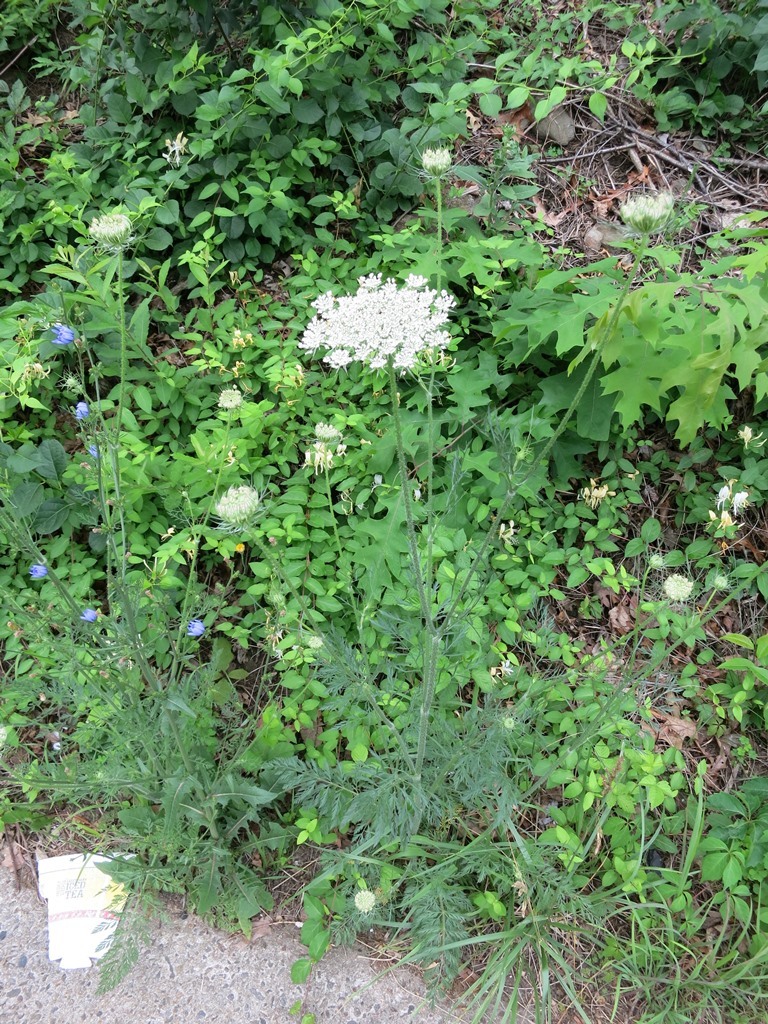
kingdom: Plantae
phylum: Tracheophyta
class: Magnoliopsida
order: Apiales
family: Apiaceae
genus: Daucus
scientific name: Daucus carota
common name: Wild carrot
